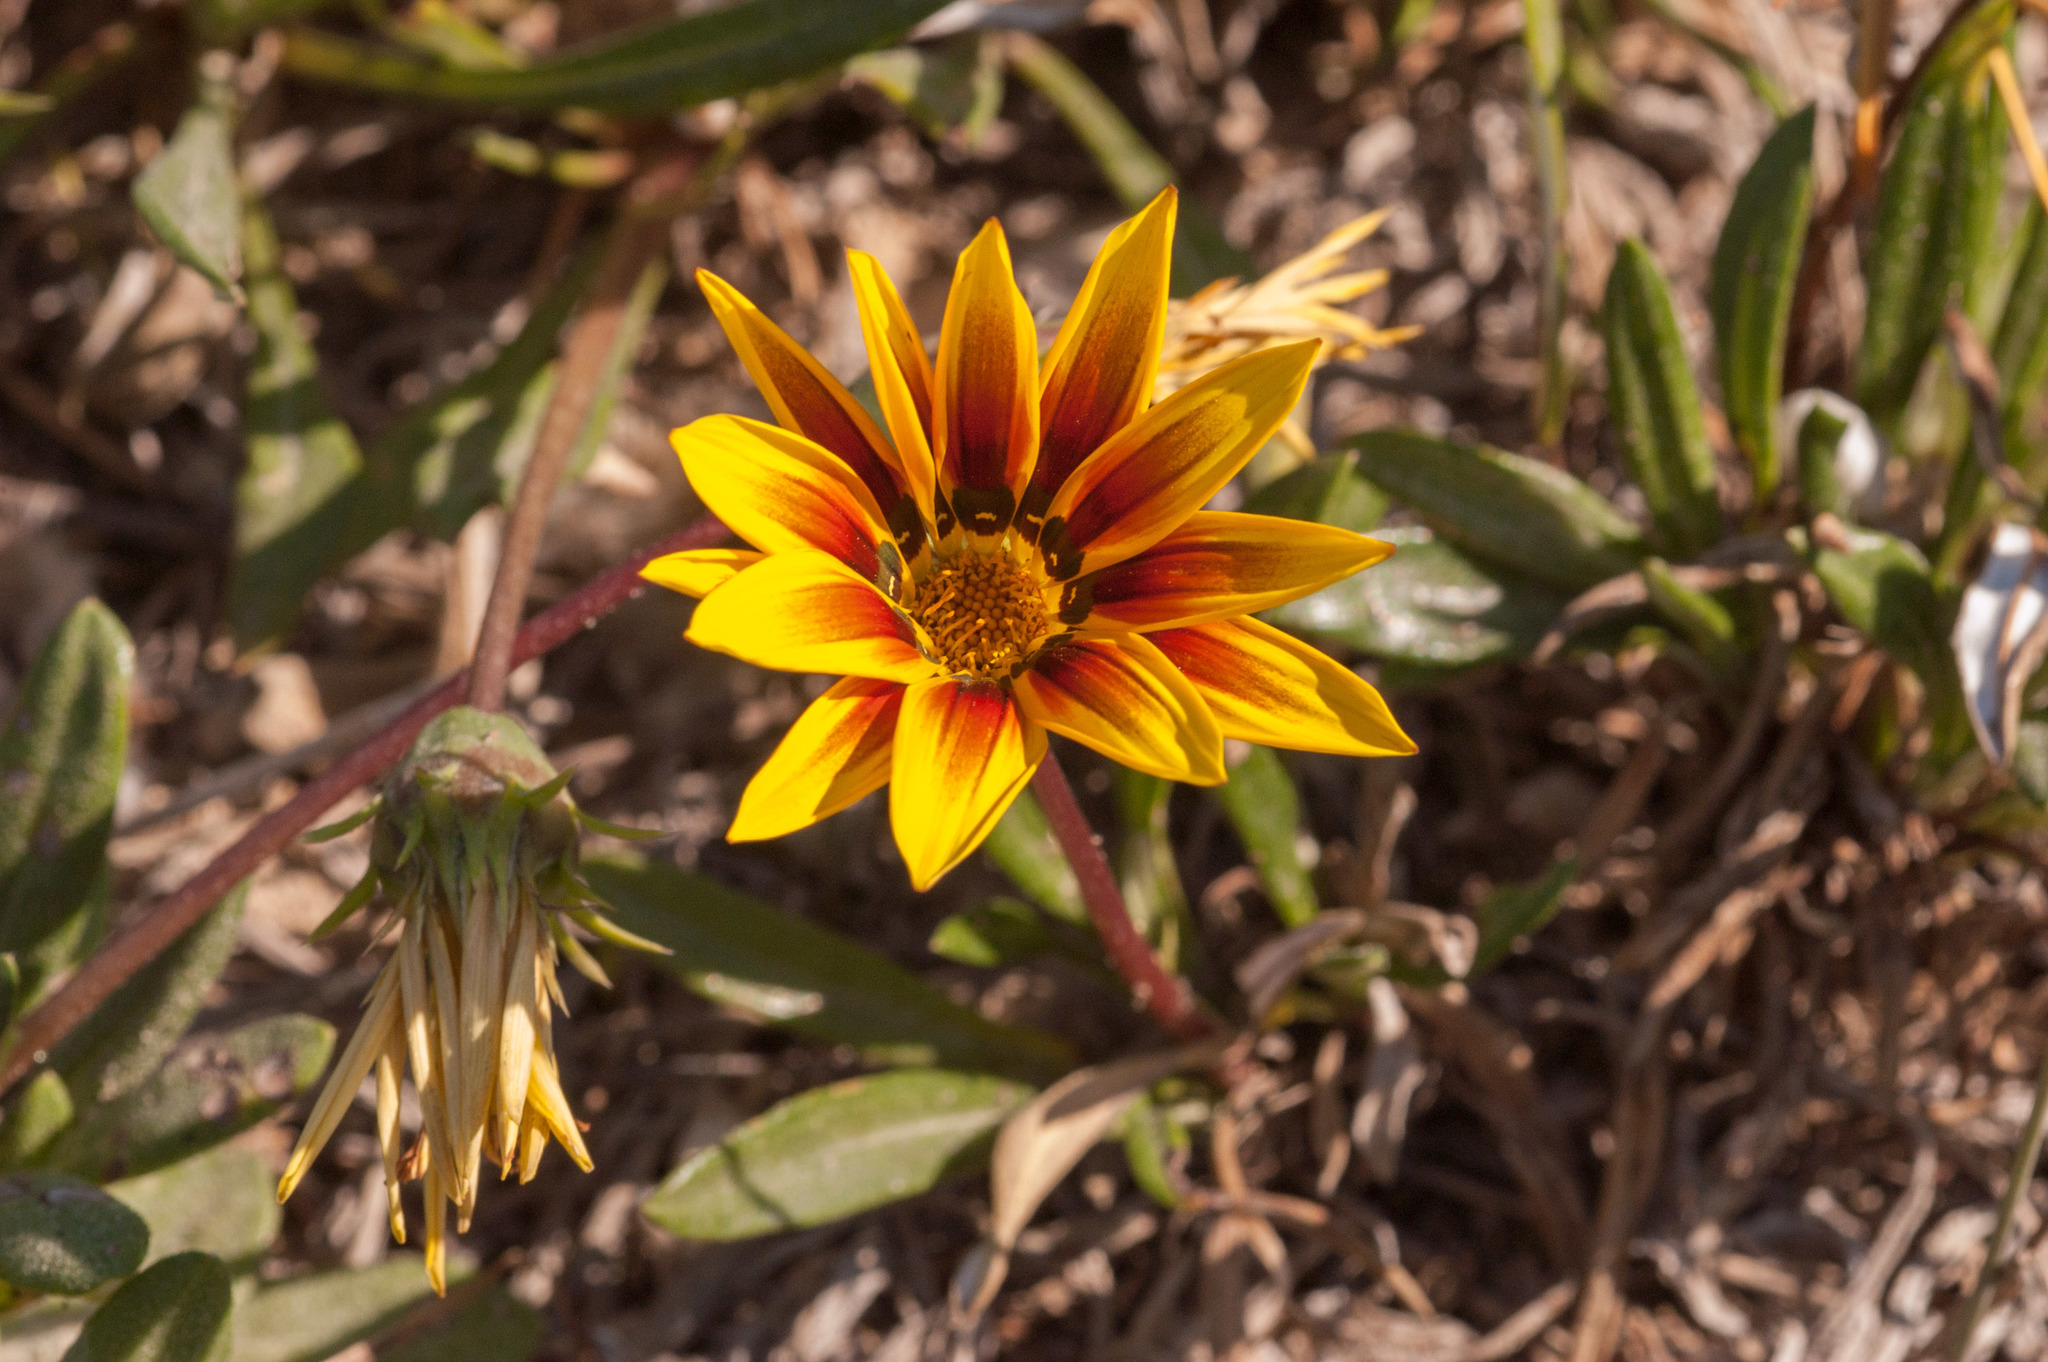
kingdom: Plantae
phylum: Tracheophyta
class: Magnoliopsida
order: Asterales
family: Asteraceae
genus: Gazania
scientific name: Gazania splendens
